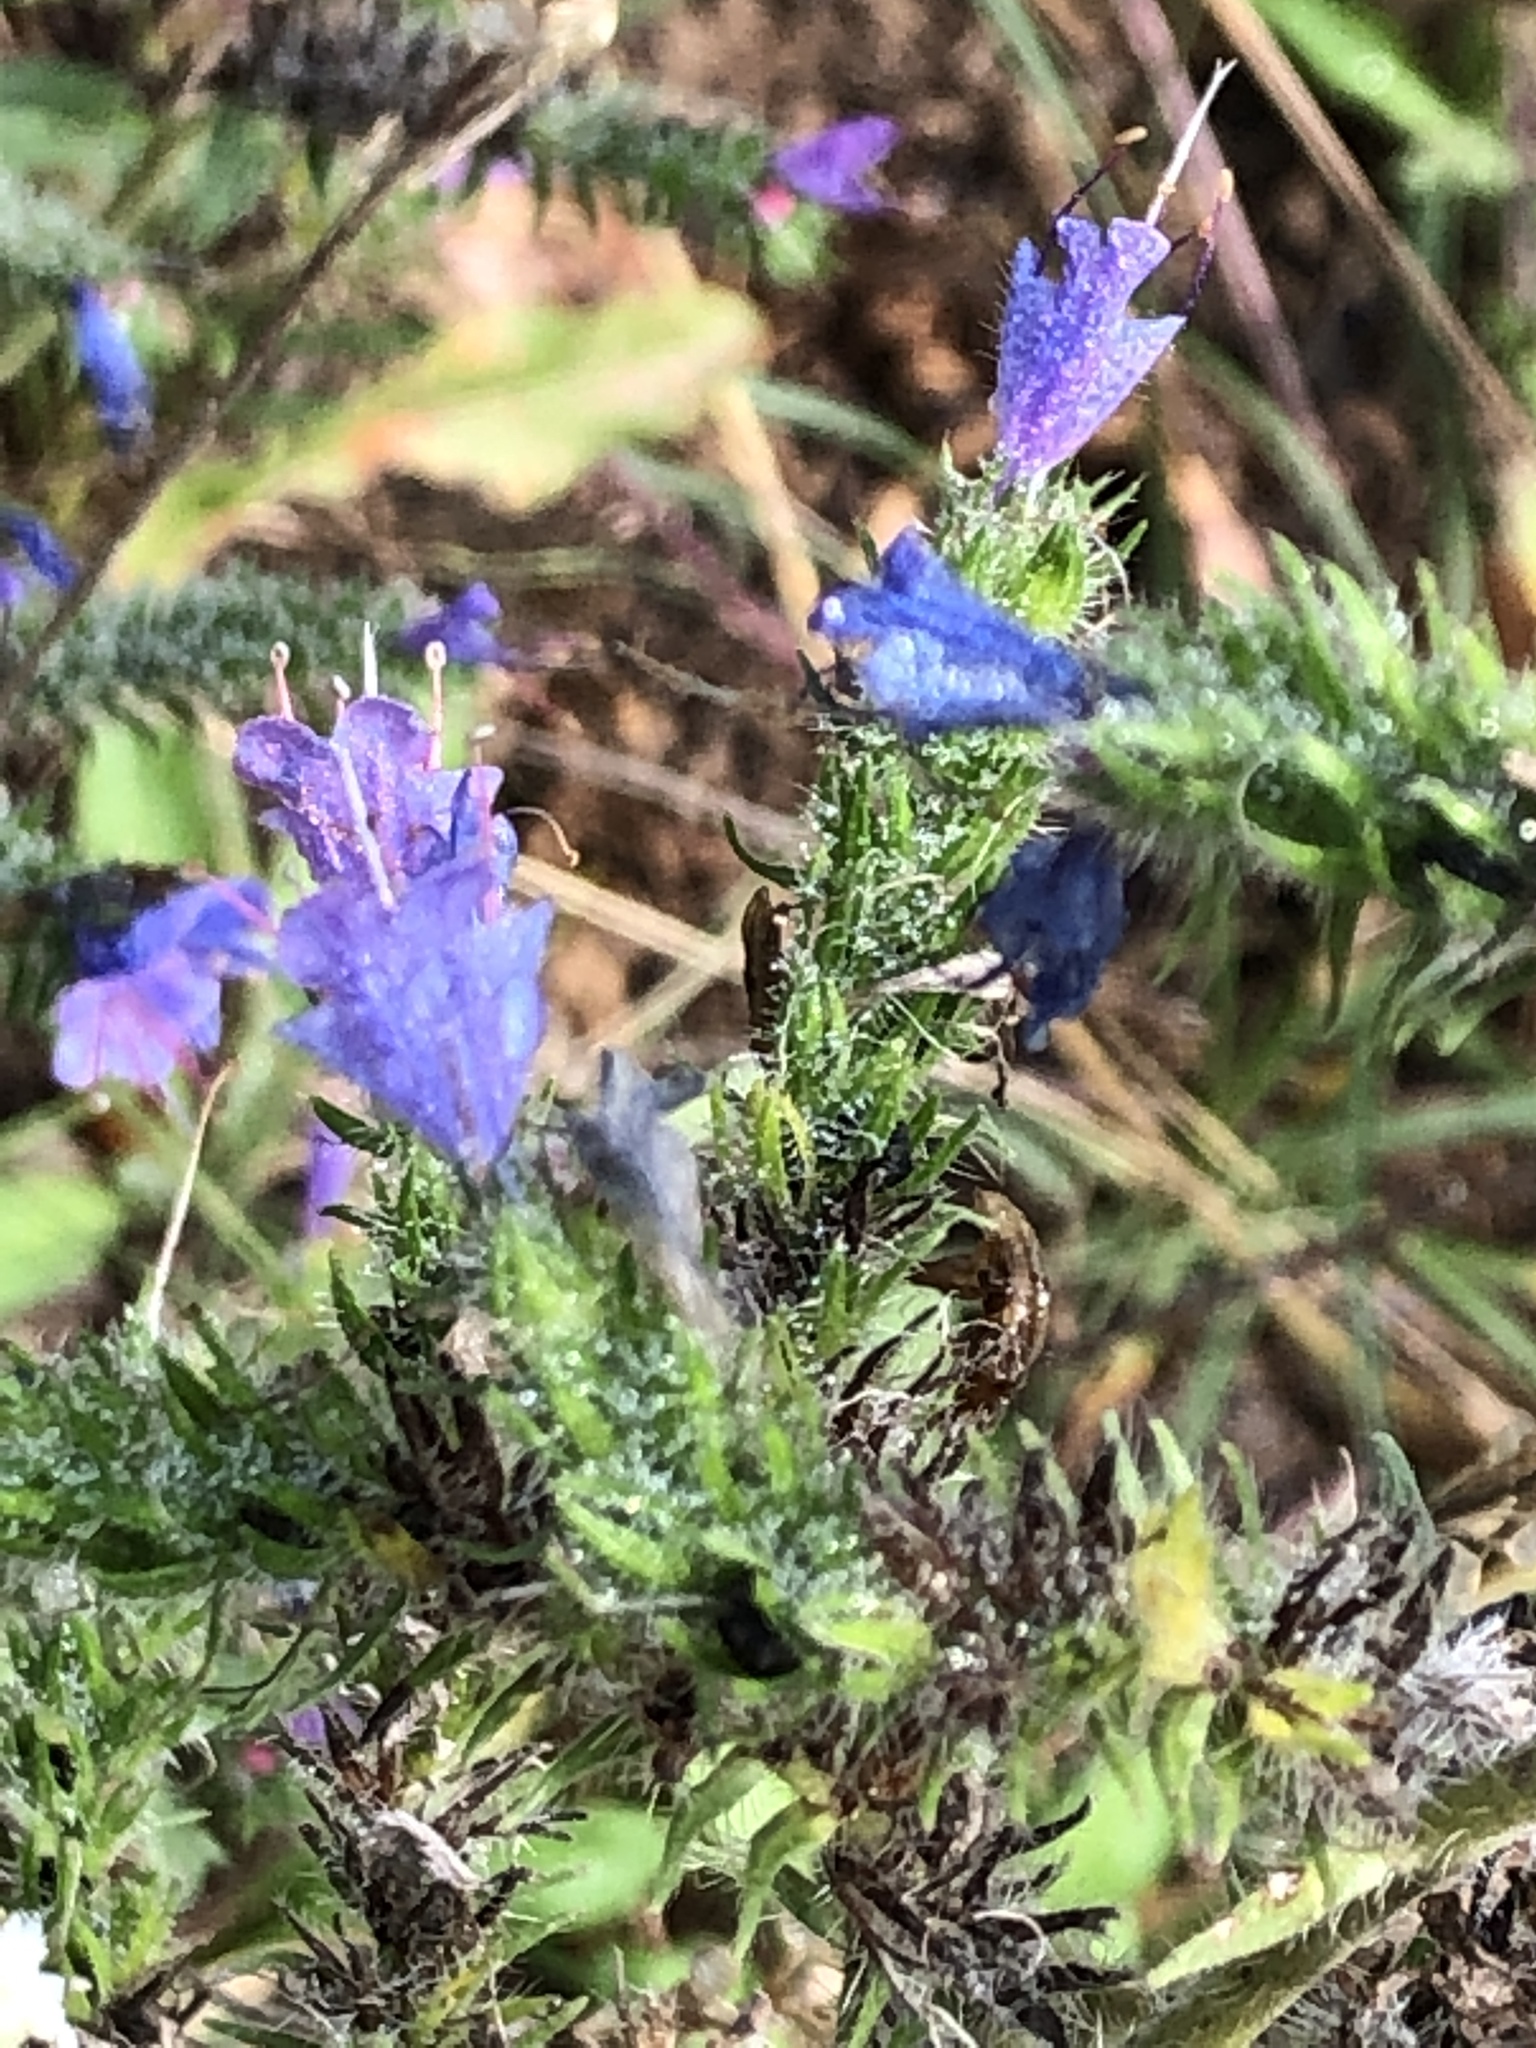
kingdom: Plantae
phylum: Tracheophyta
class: Magnoliopsida
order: Boraginales
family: Boraginaceae
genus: Echium
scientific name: Echium vulgare
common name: Common viper's bugloss
